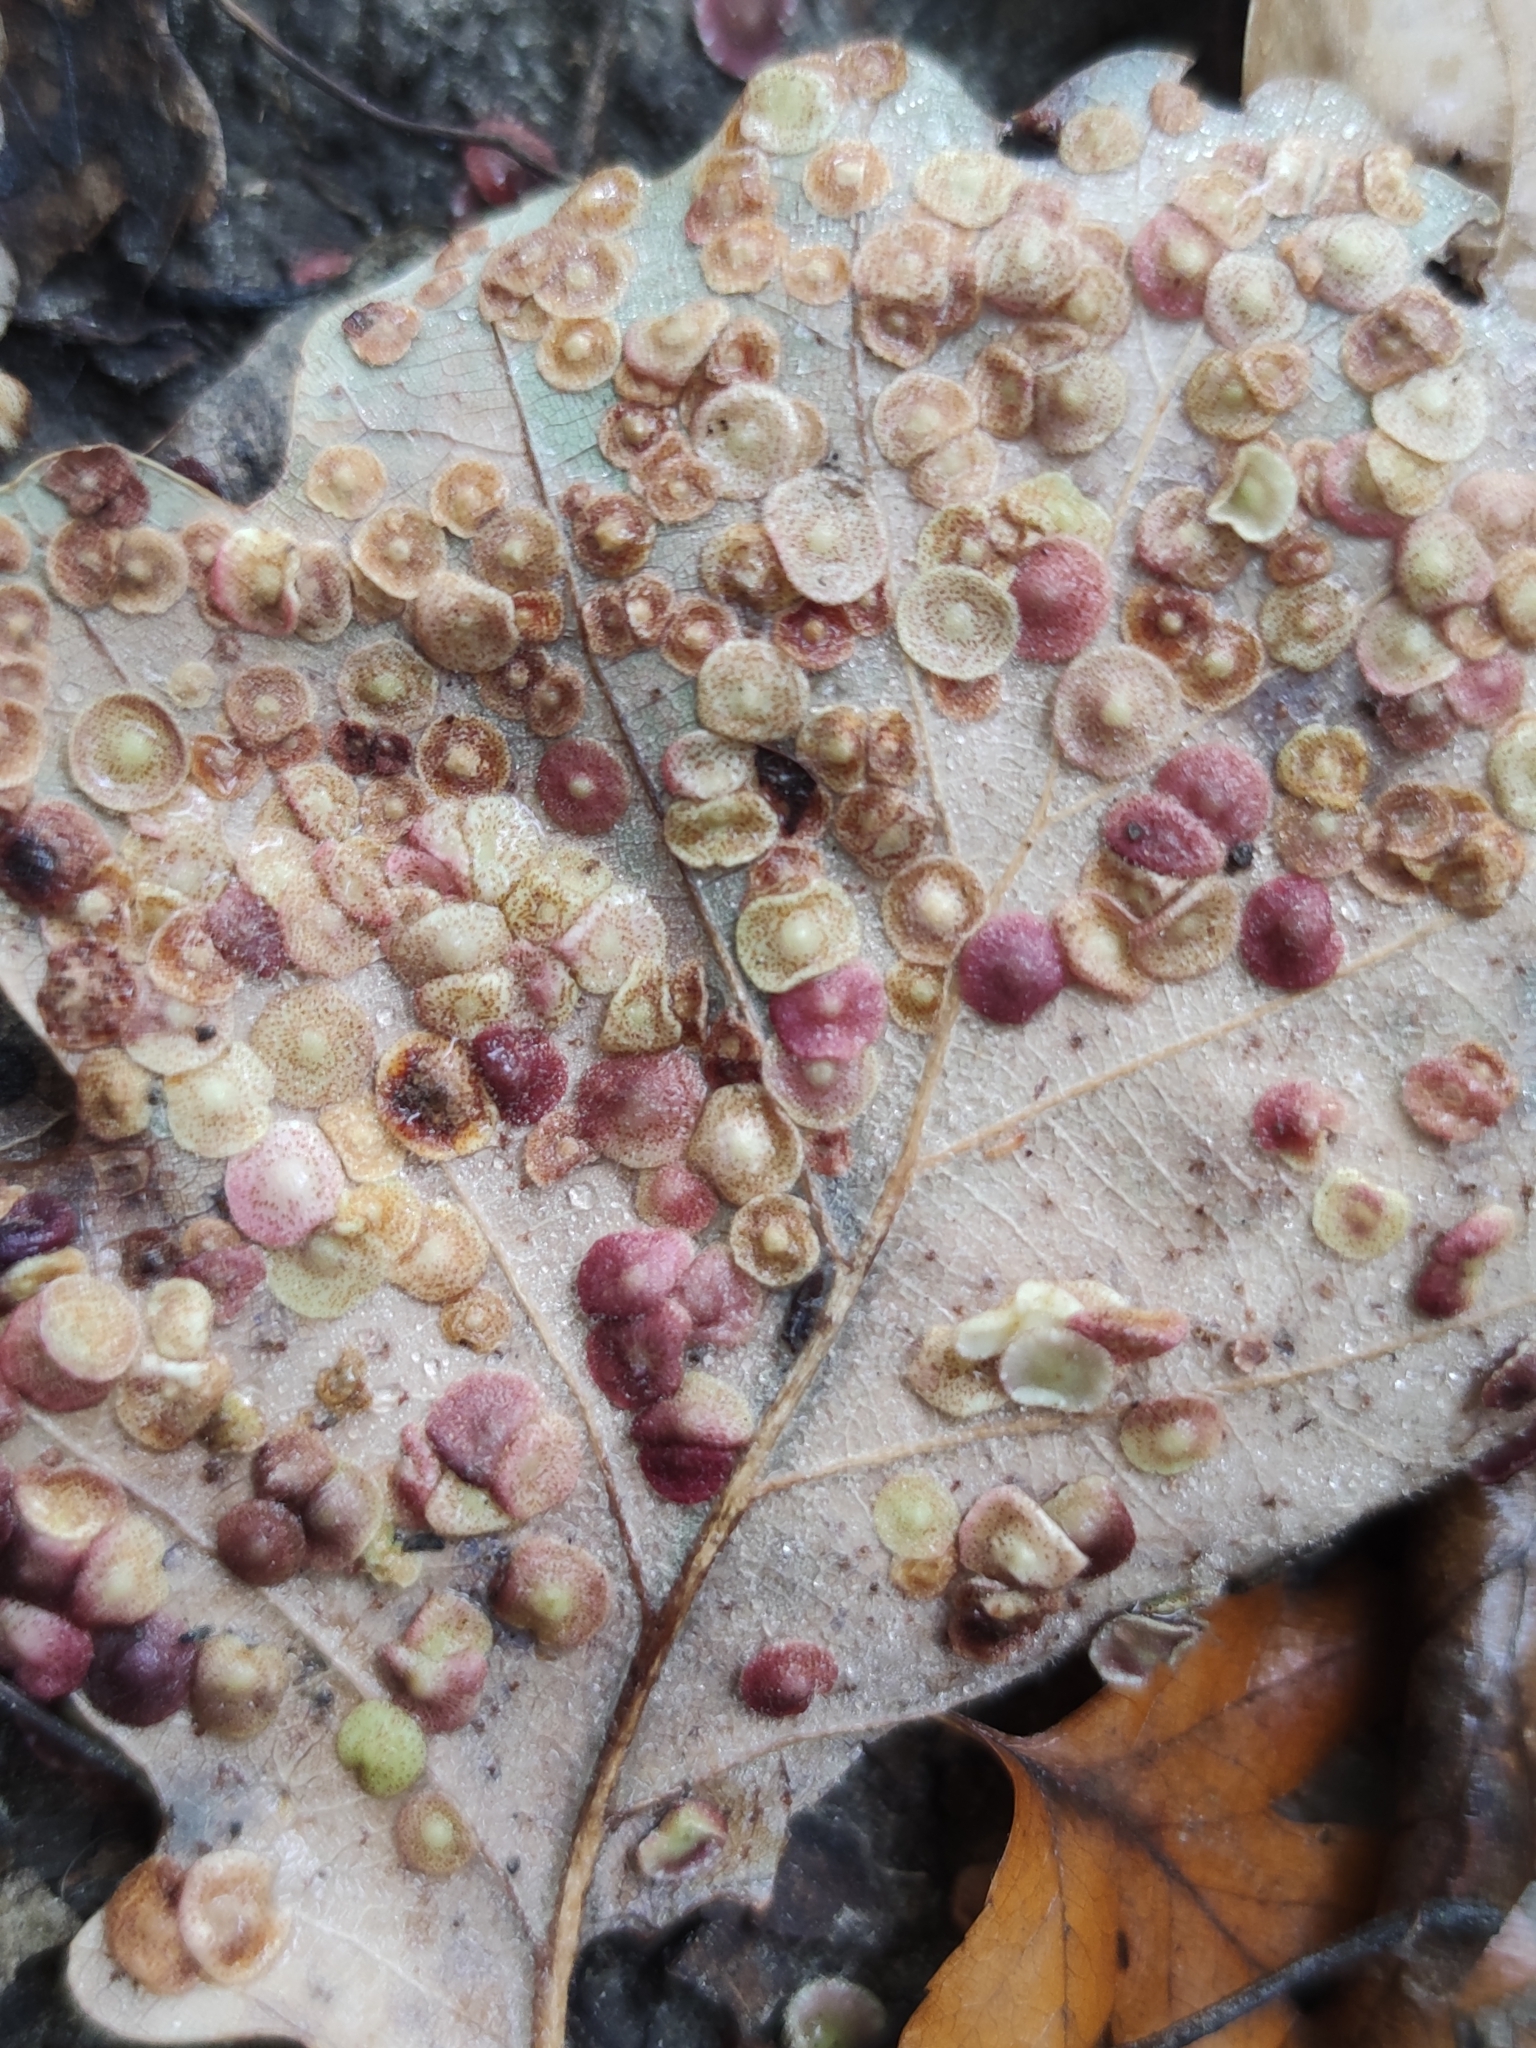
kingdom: Animalia
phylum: Arthropoda
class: Insecta
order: Hymenoptera
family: Cynipidae
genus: Neuroterus
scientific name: Neuroterus quercusbaccarum
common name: Common spangle gall
